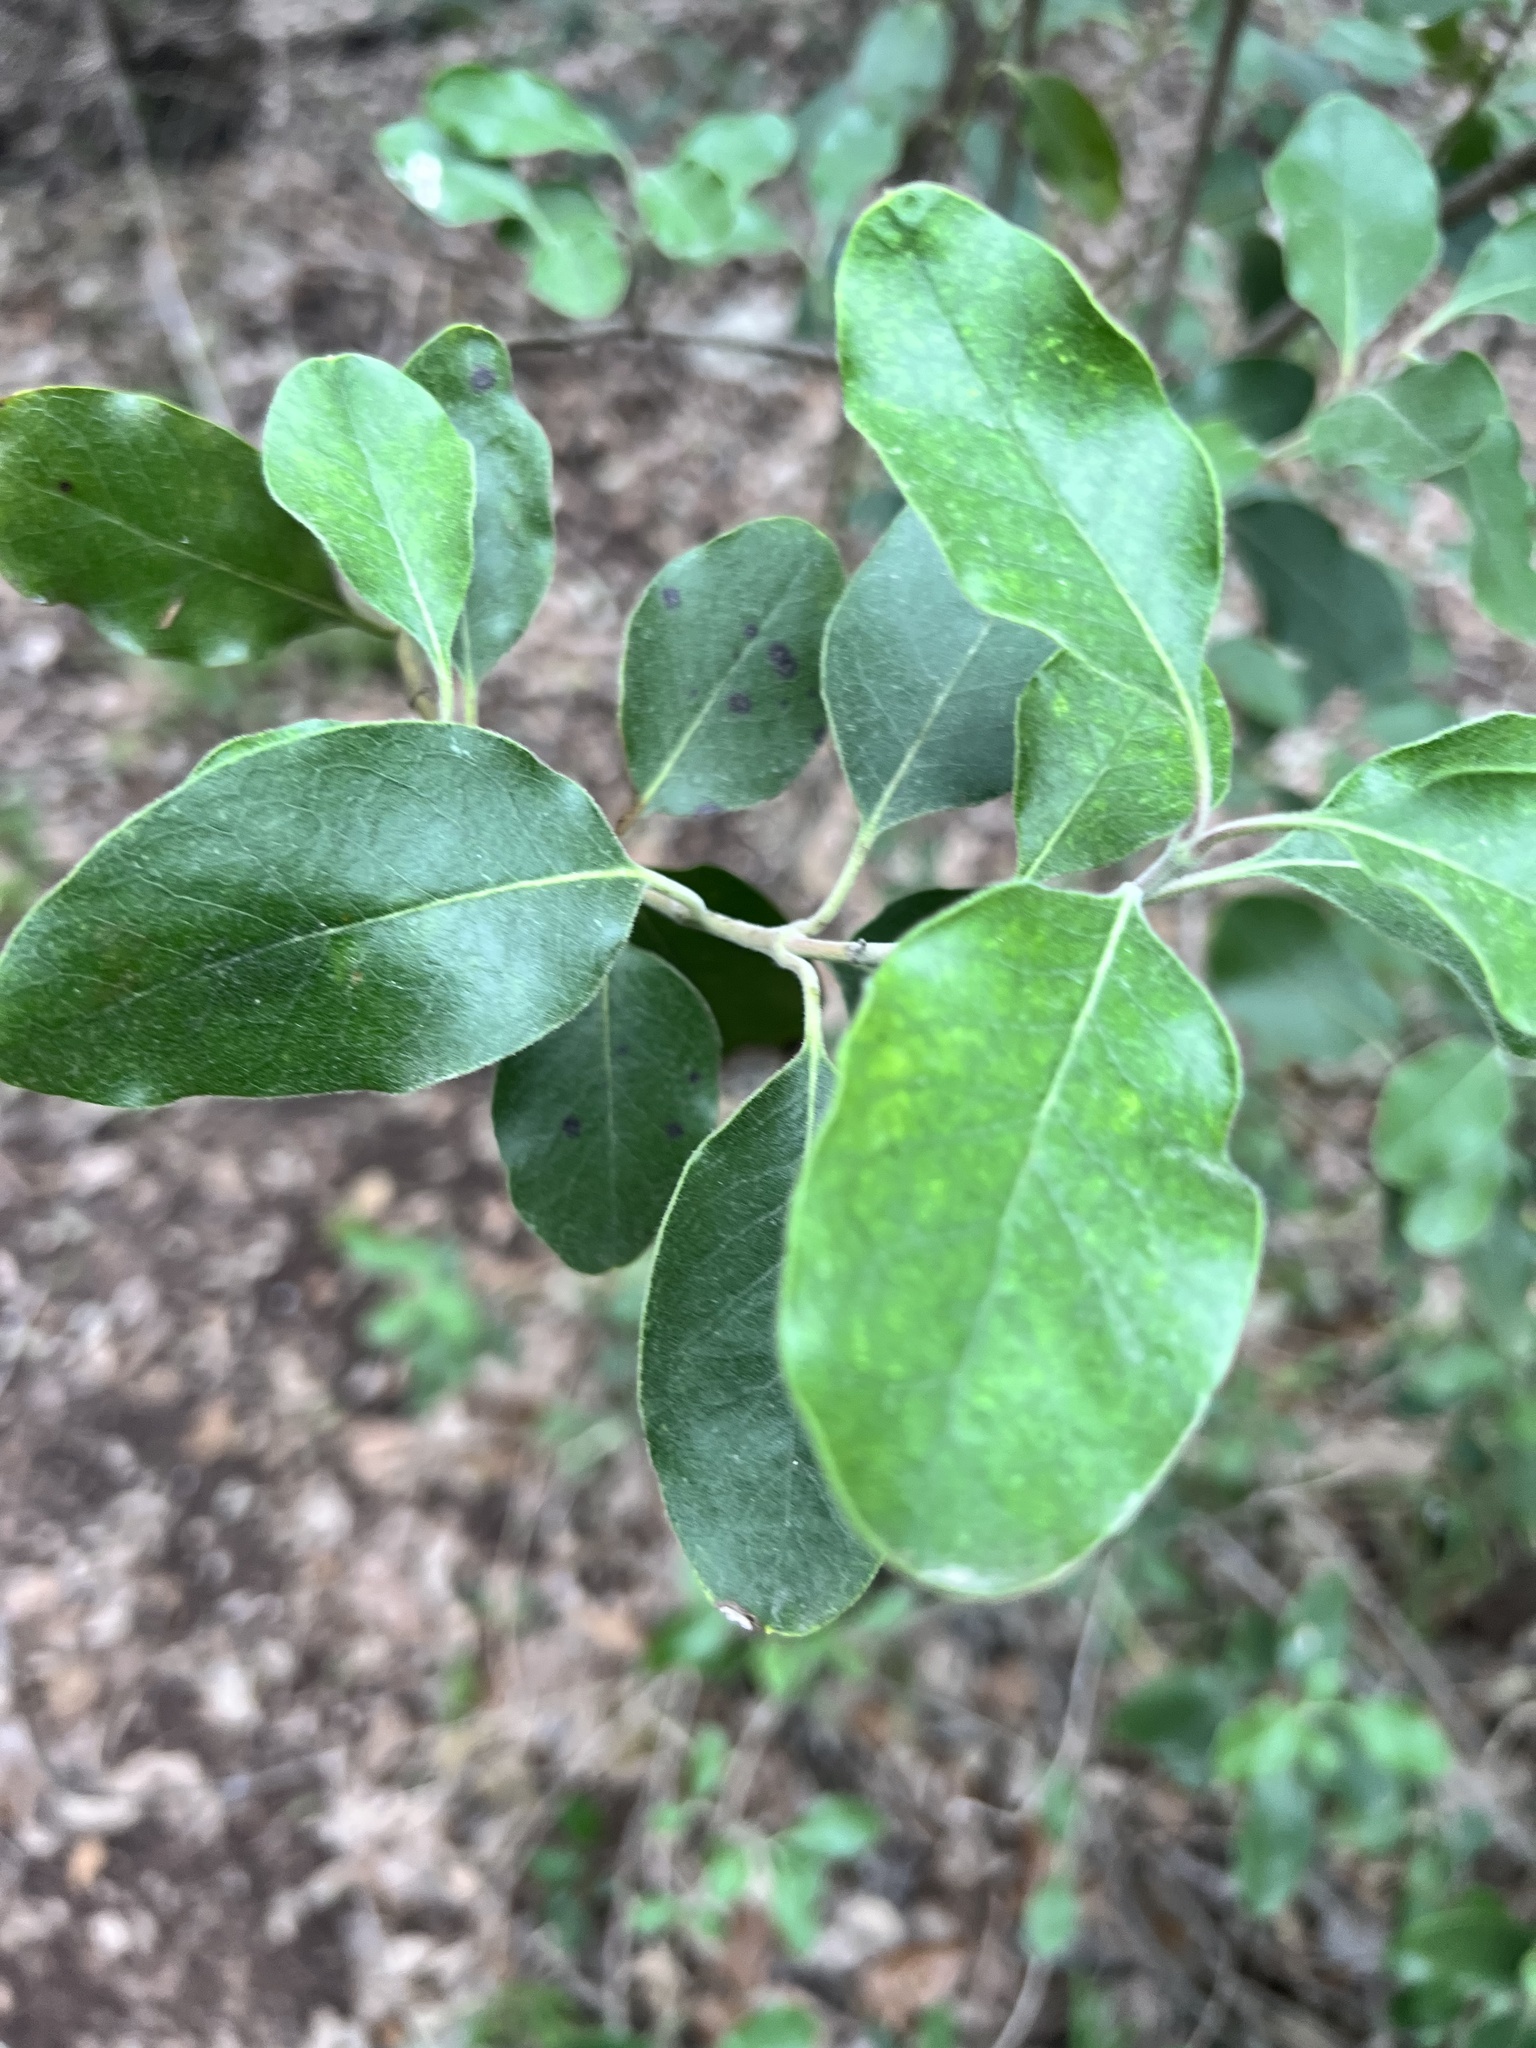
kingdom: Plantae
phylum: Tracheophyta
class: Magnoliopsida
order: Garryales
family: Garryaceae
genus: Garrya
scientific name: Garrya lindheimeri
